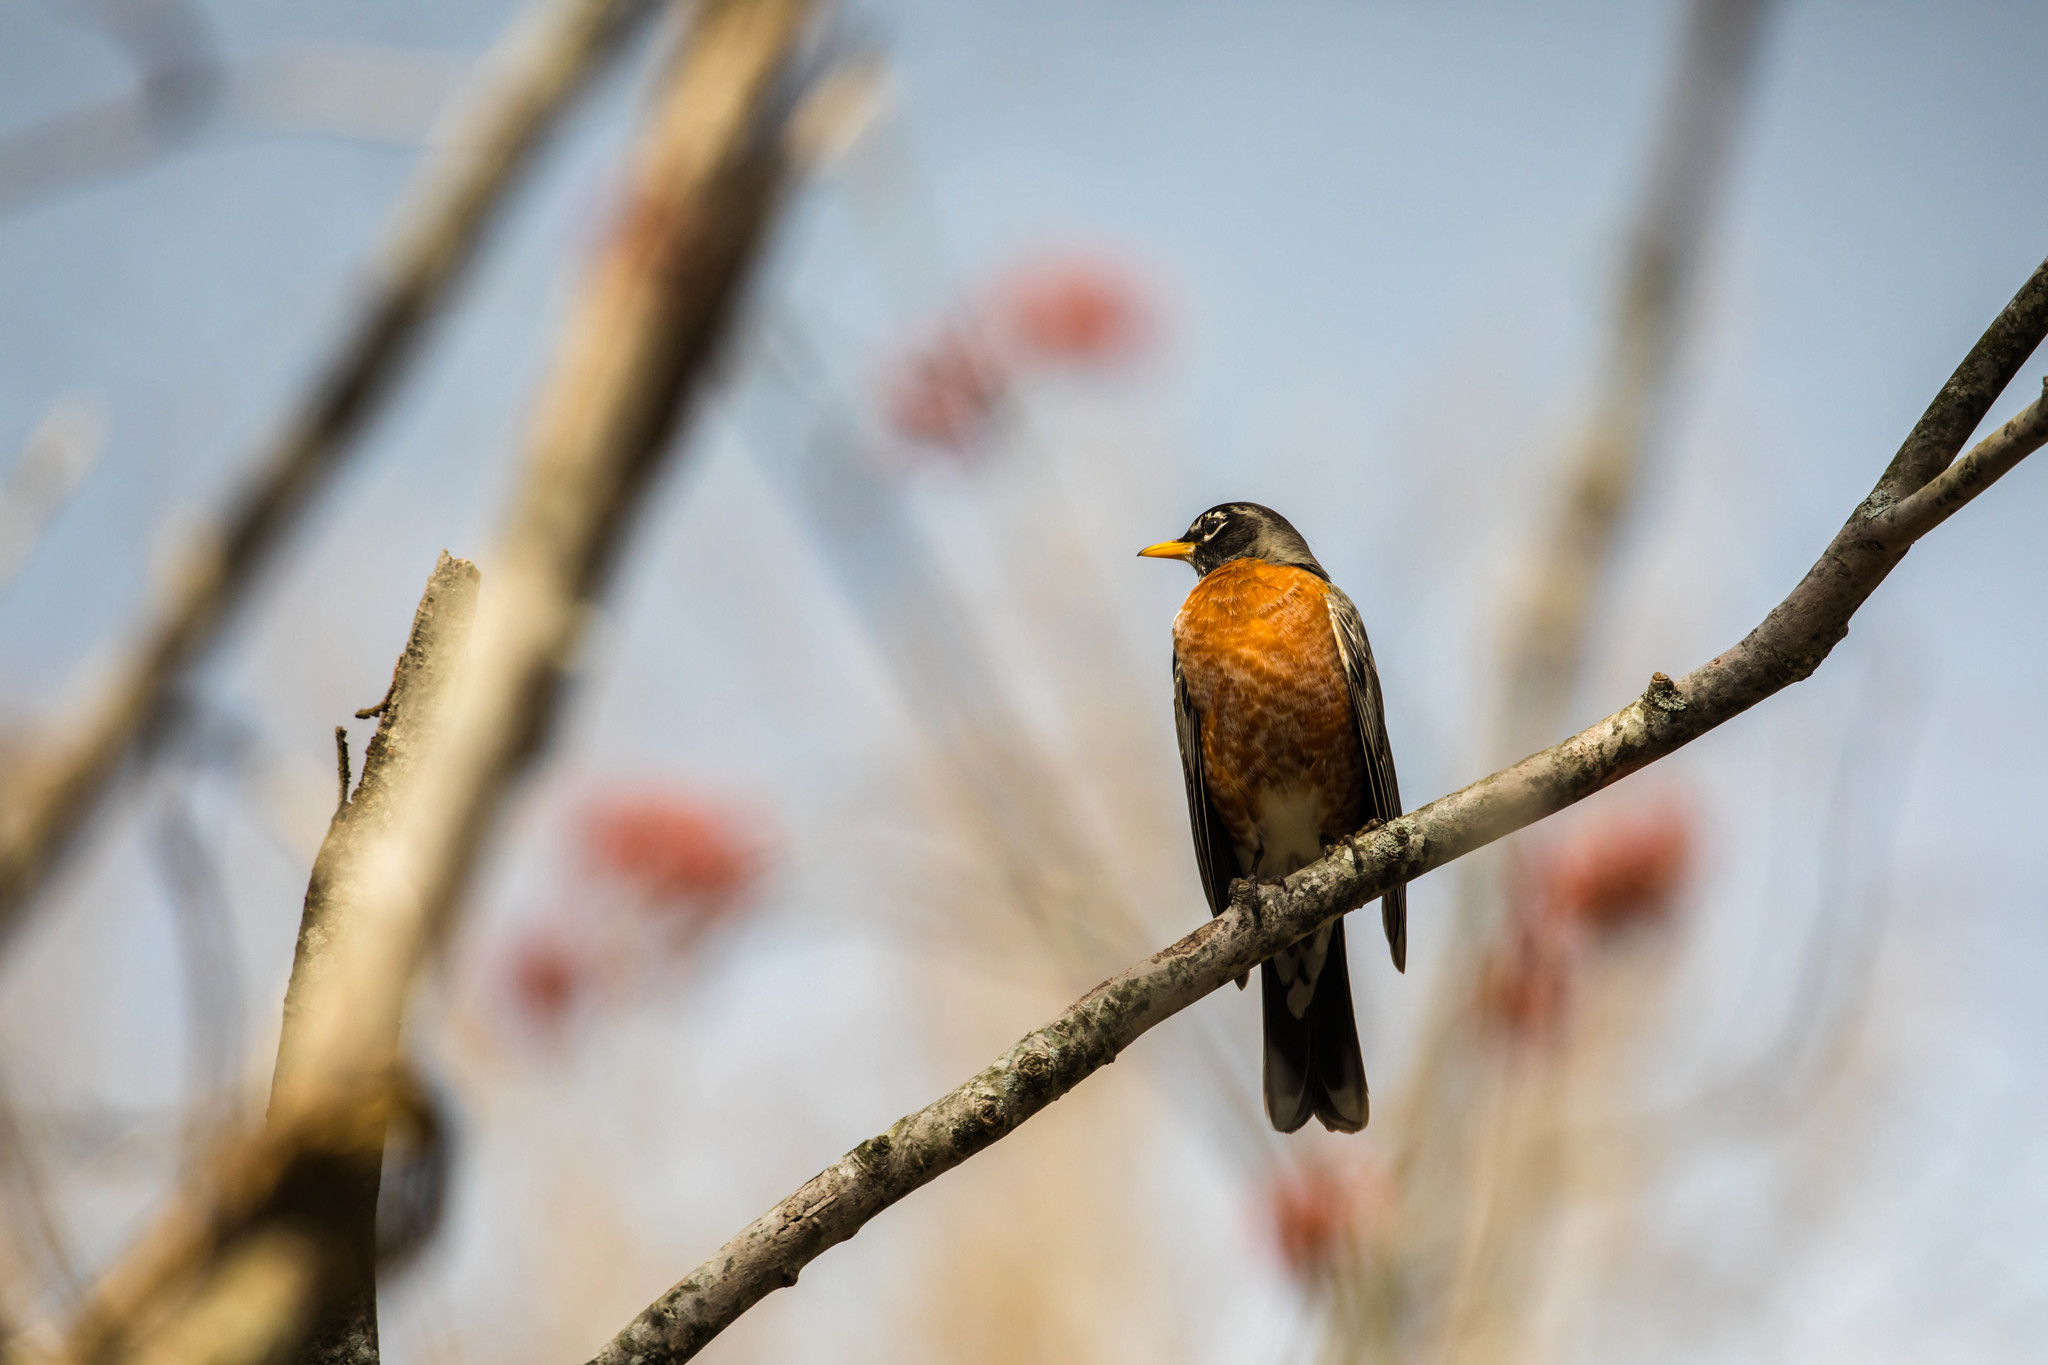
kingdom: Animalia
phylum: Chordata
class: Aves
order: Passeriformes
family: Turdidae
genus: Turdus
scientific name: Turdus migratorius
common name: American robin
